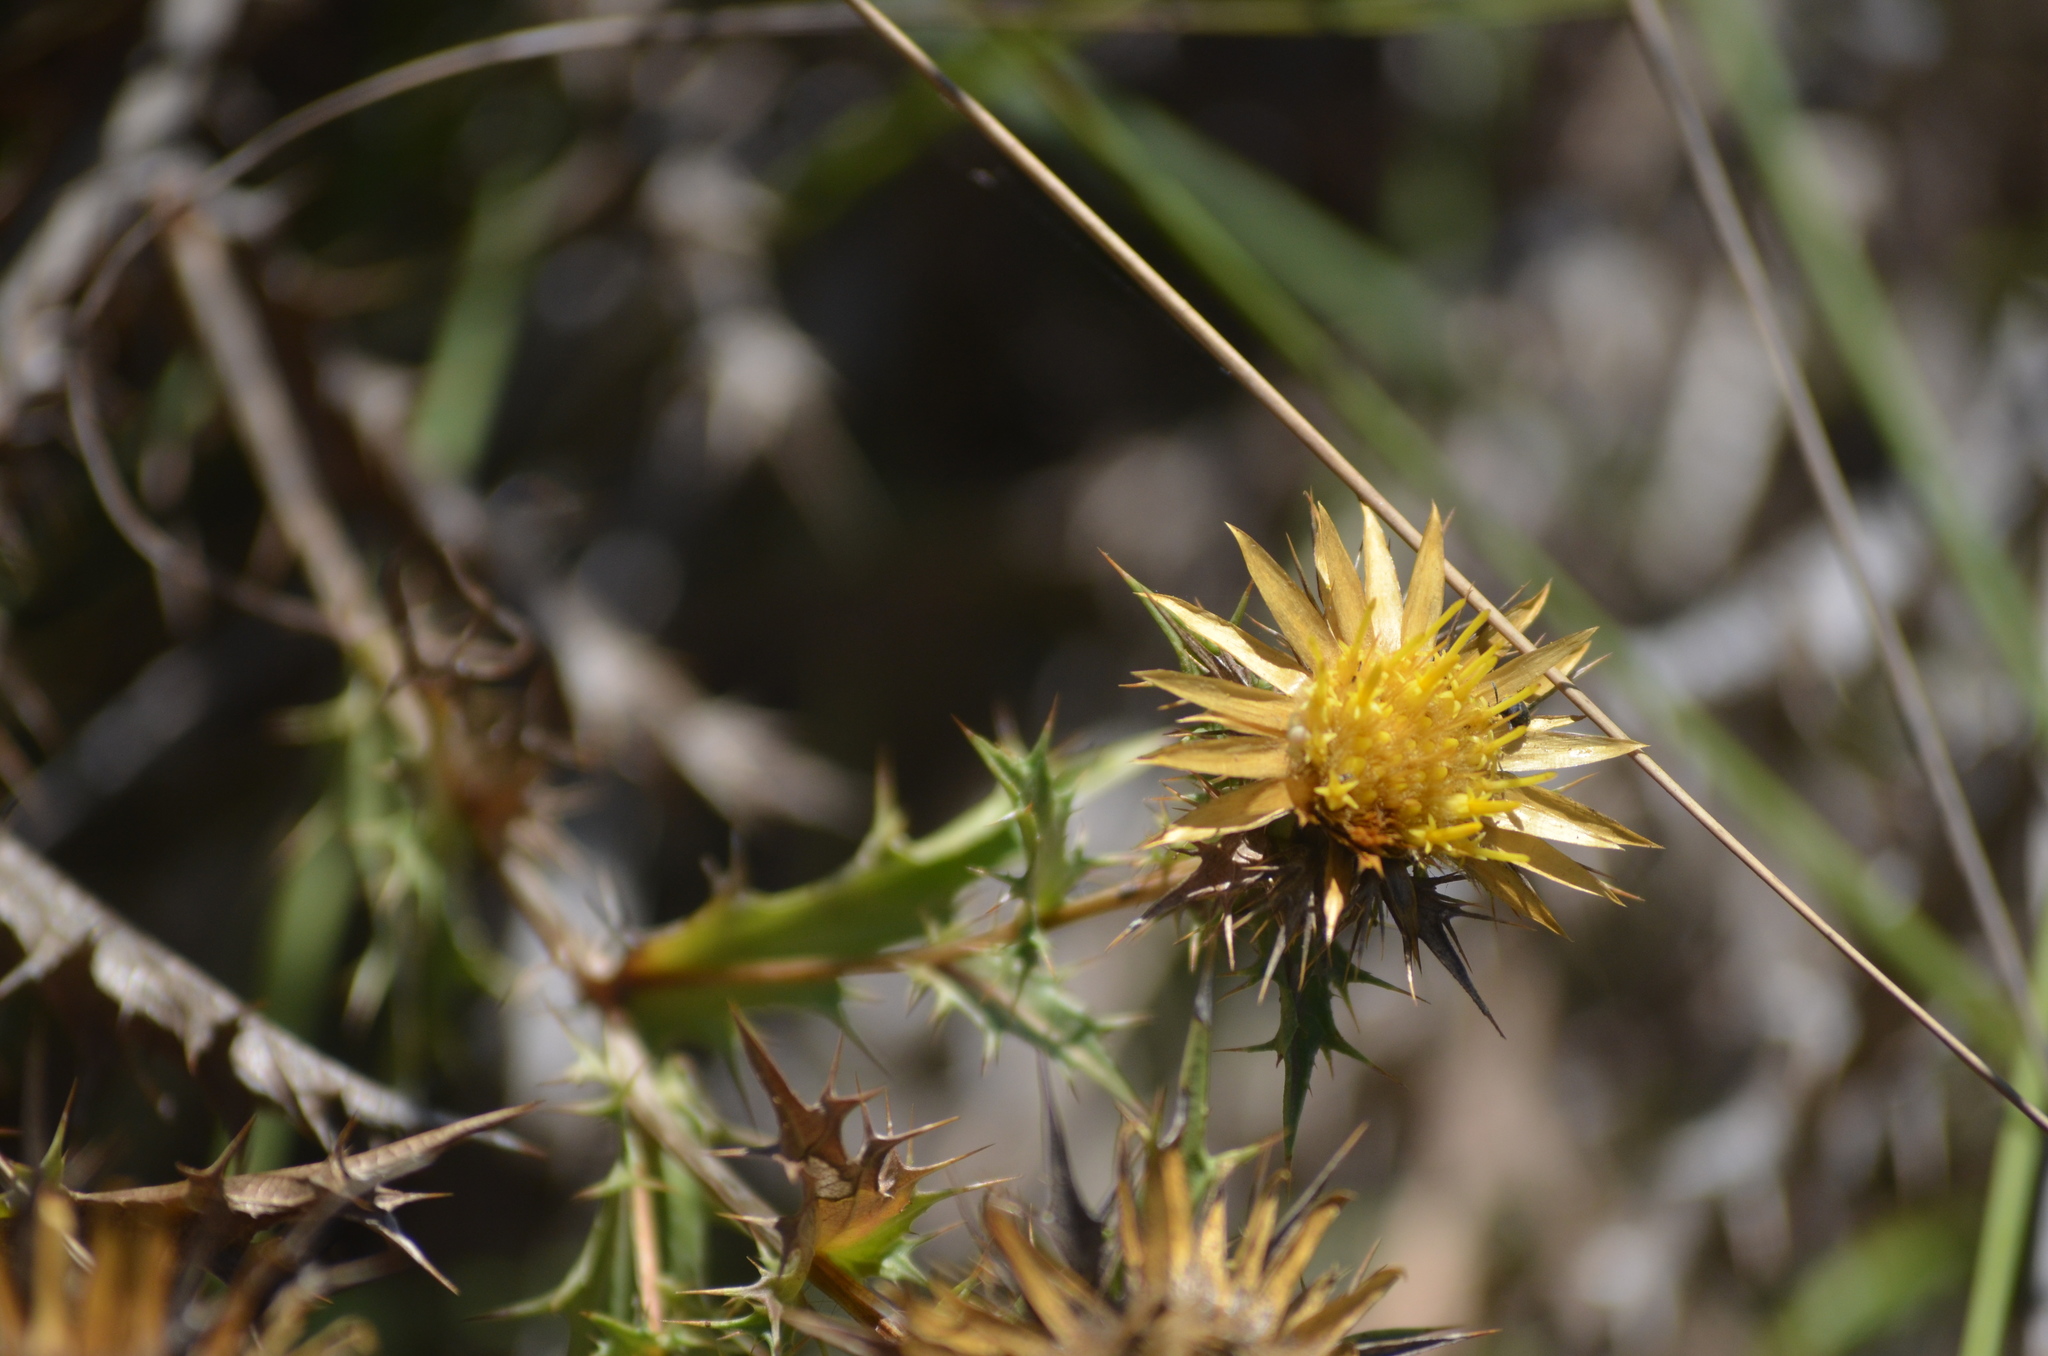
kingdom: Plantae
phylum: Tracheophyta
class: Magnoliopsida
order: Asterales
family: Asteraceae
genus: Carlina
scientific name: Carlina hispanica
